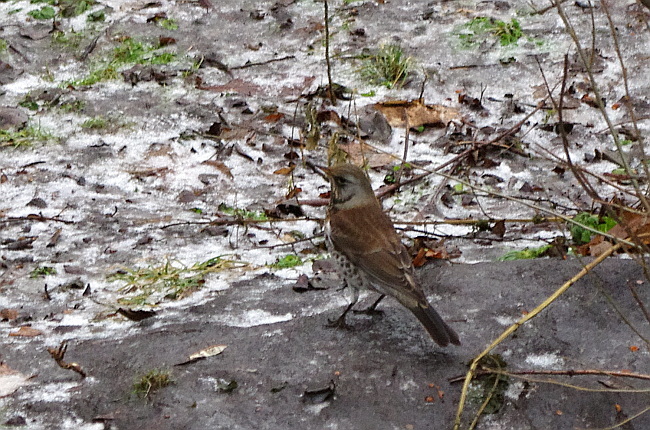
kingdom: Animalia
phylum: Chordata
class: Aves
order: Passeriformes
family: Turdidae
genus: Turdus
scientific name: Turdus pilaris
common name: Fieldfare
